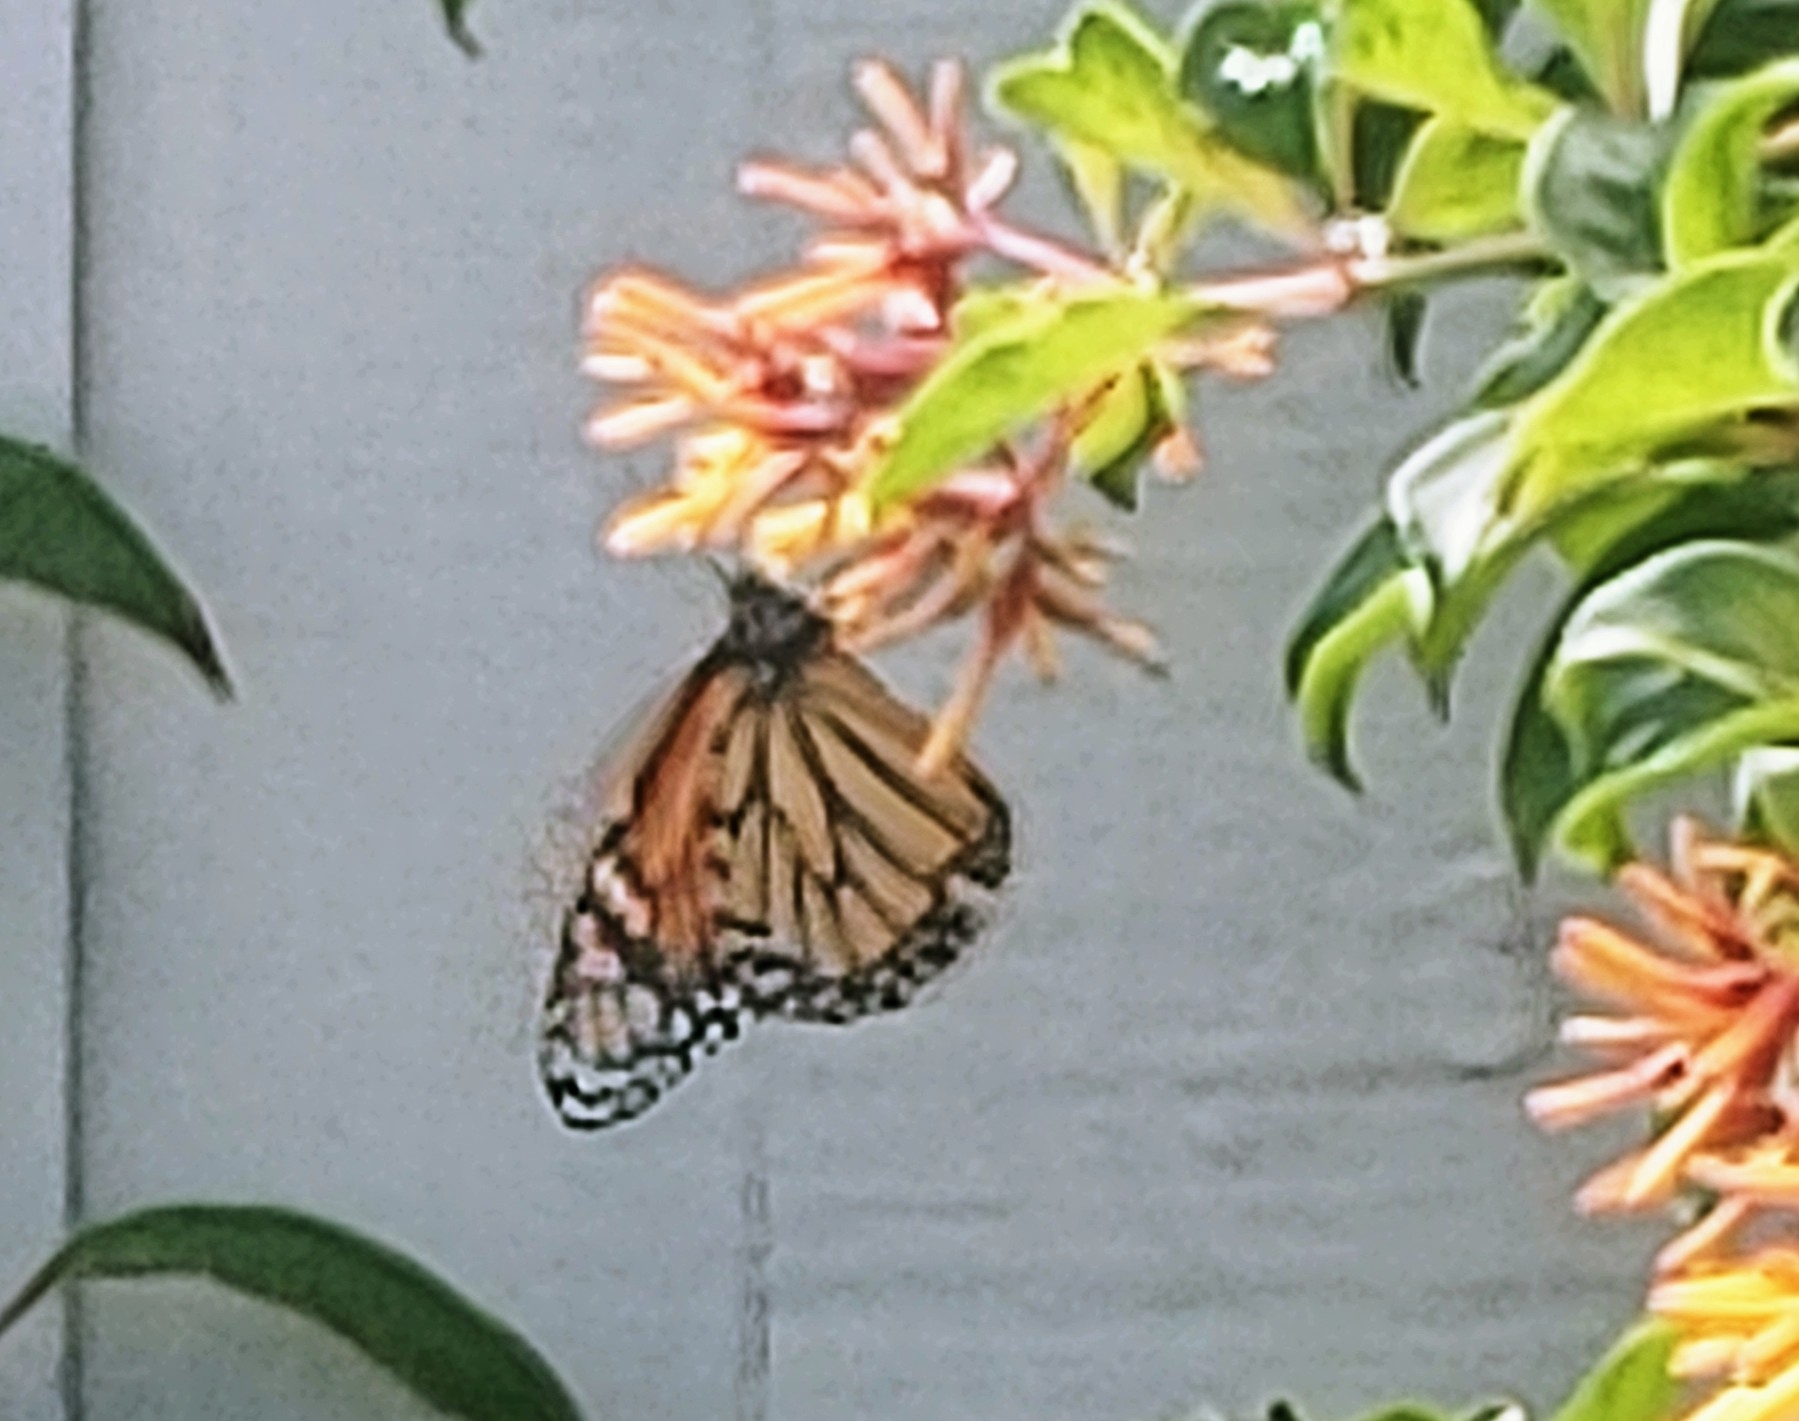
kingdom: Animalia
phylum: Arthropoda
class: Insecta
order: Lepidoptera
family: Nymphalidae
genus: Danaus
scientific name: Danaus plexippus
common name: Monarch
